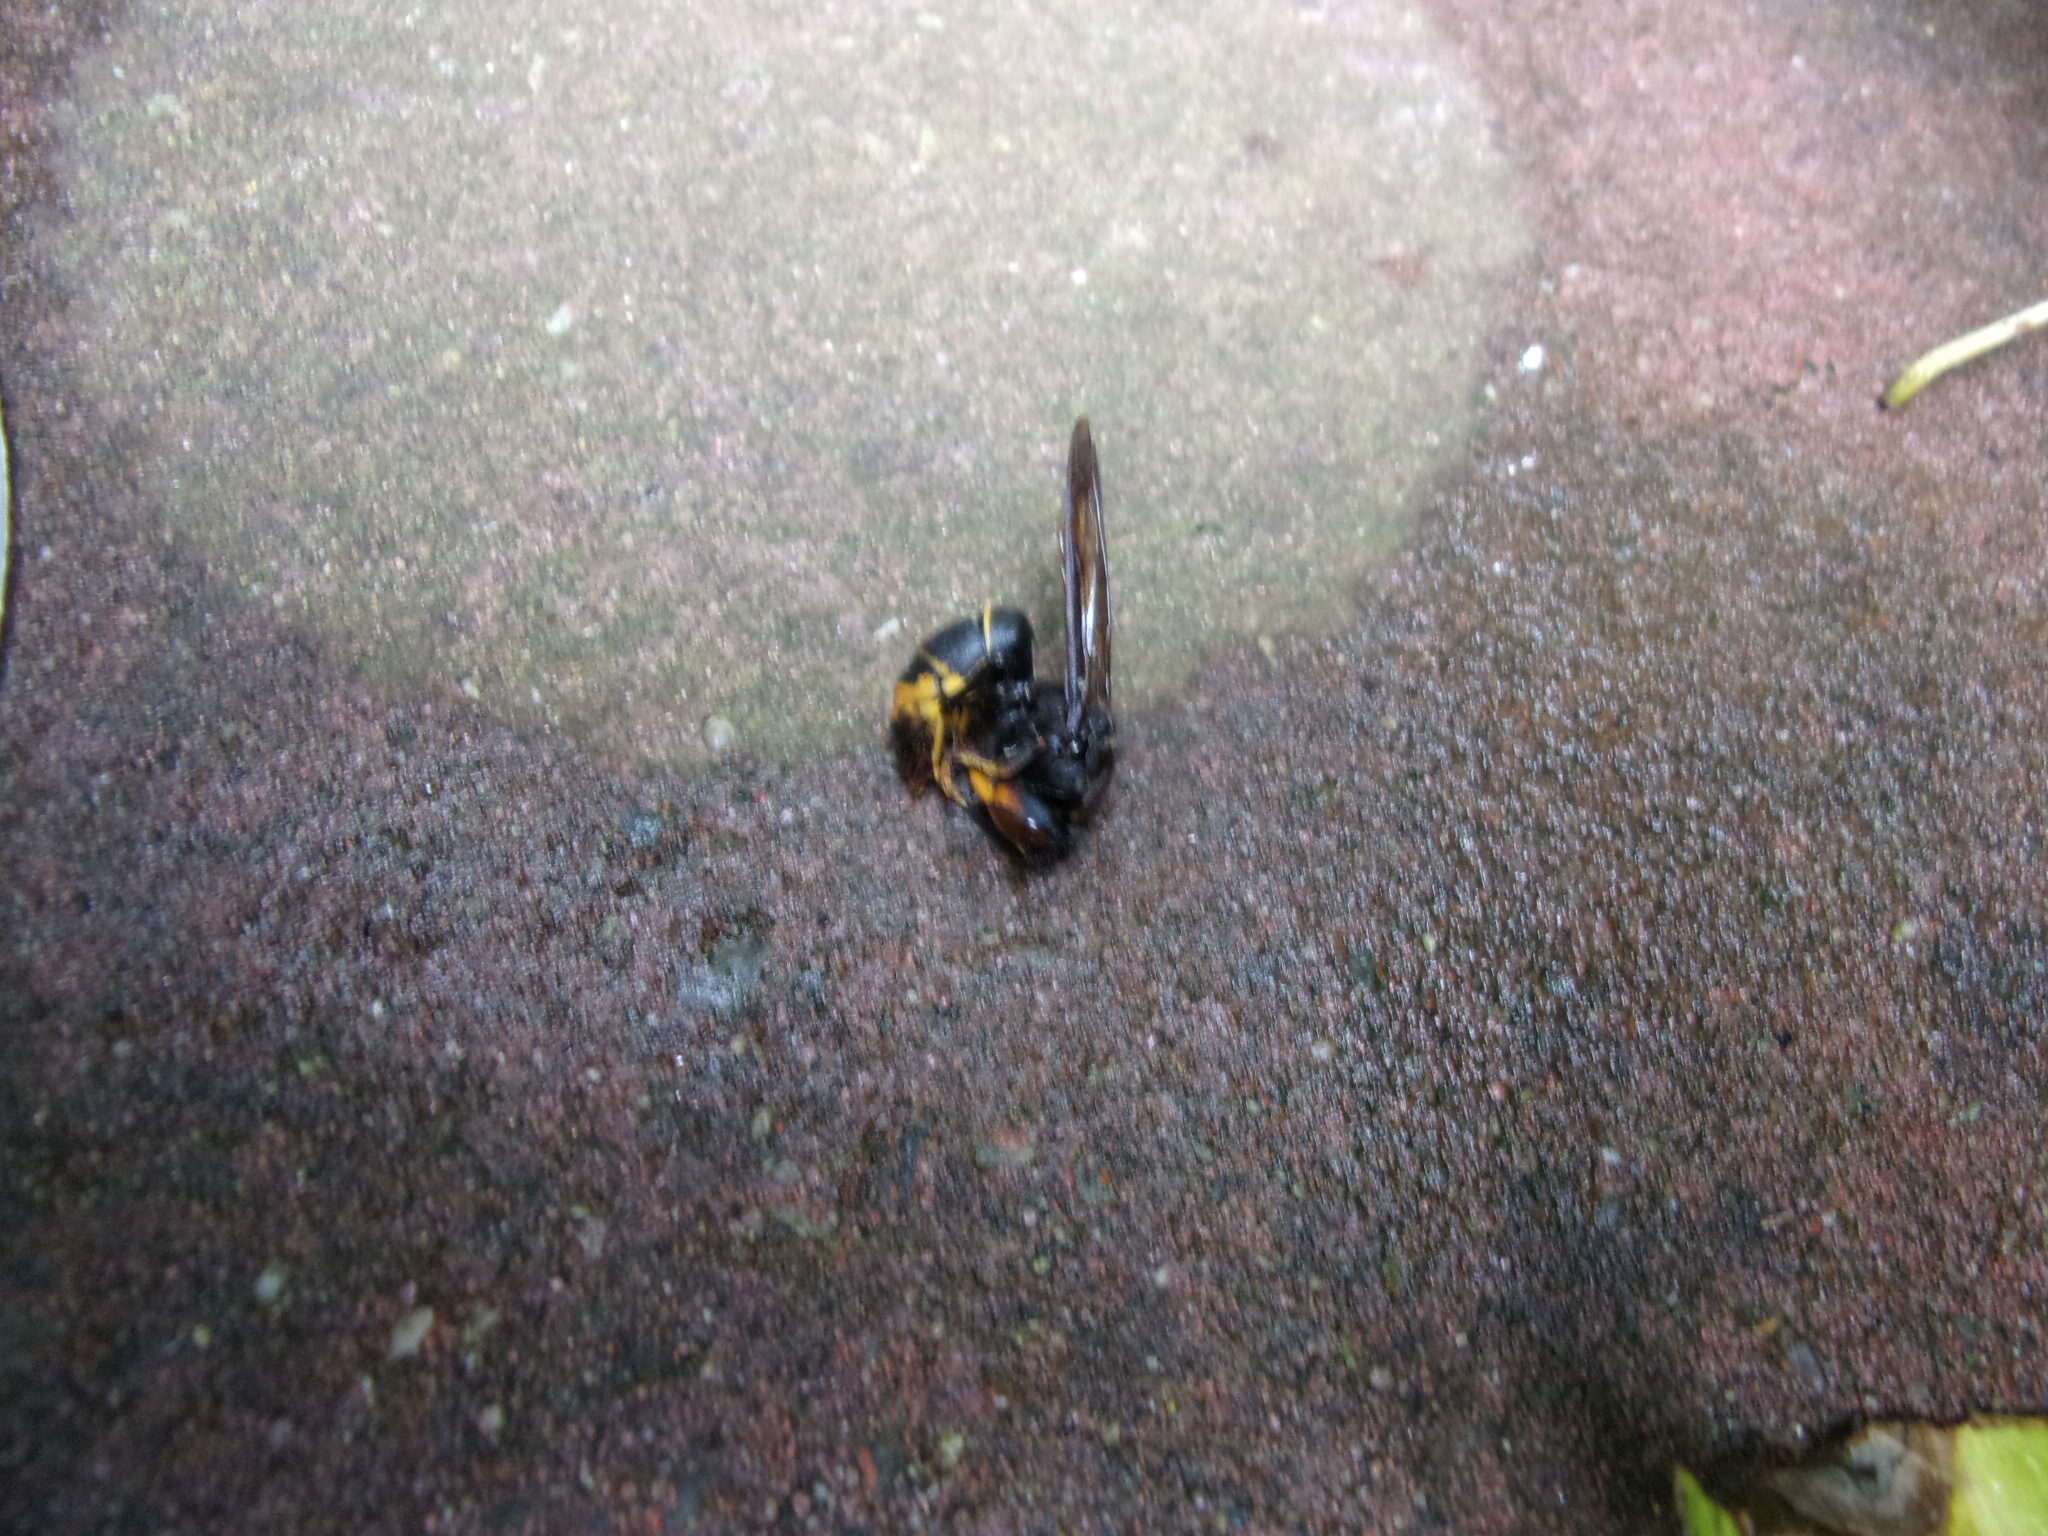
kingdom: Animalia
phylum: Arthropoda
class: Insecta
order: Hymenoptera
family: Vespidae
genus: Vespa
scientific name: Vespa velutina
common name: Asian hornet
